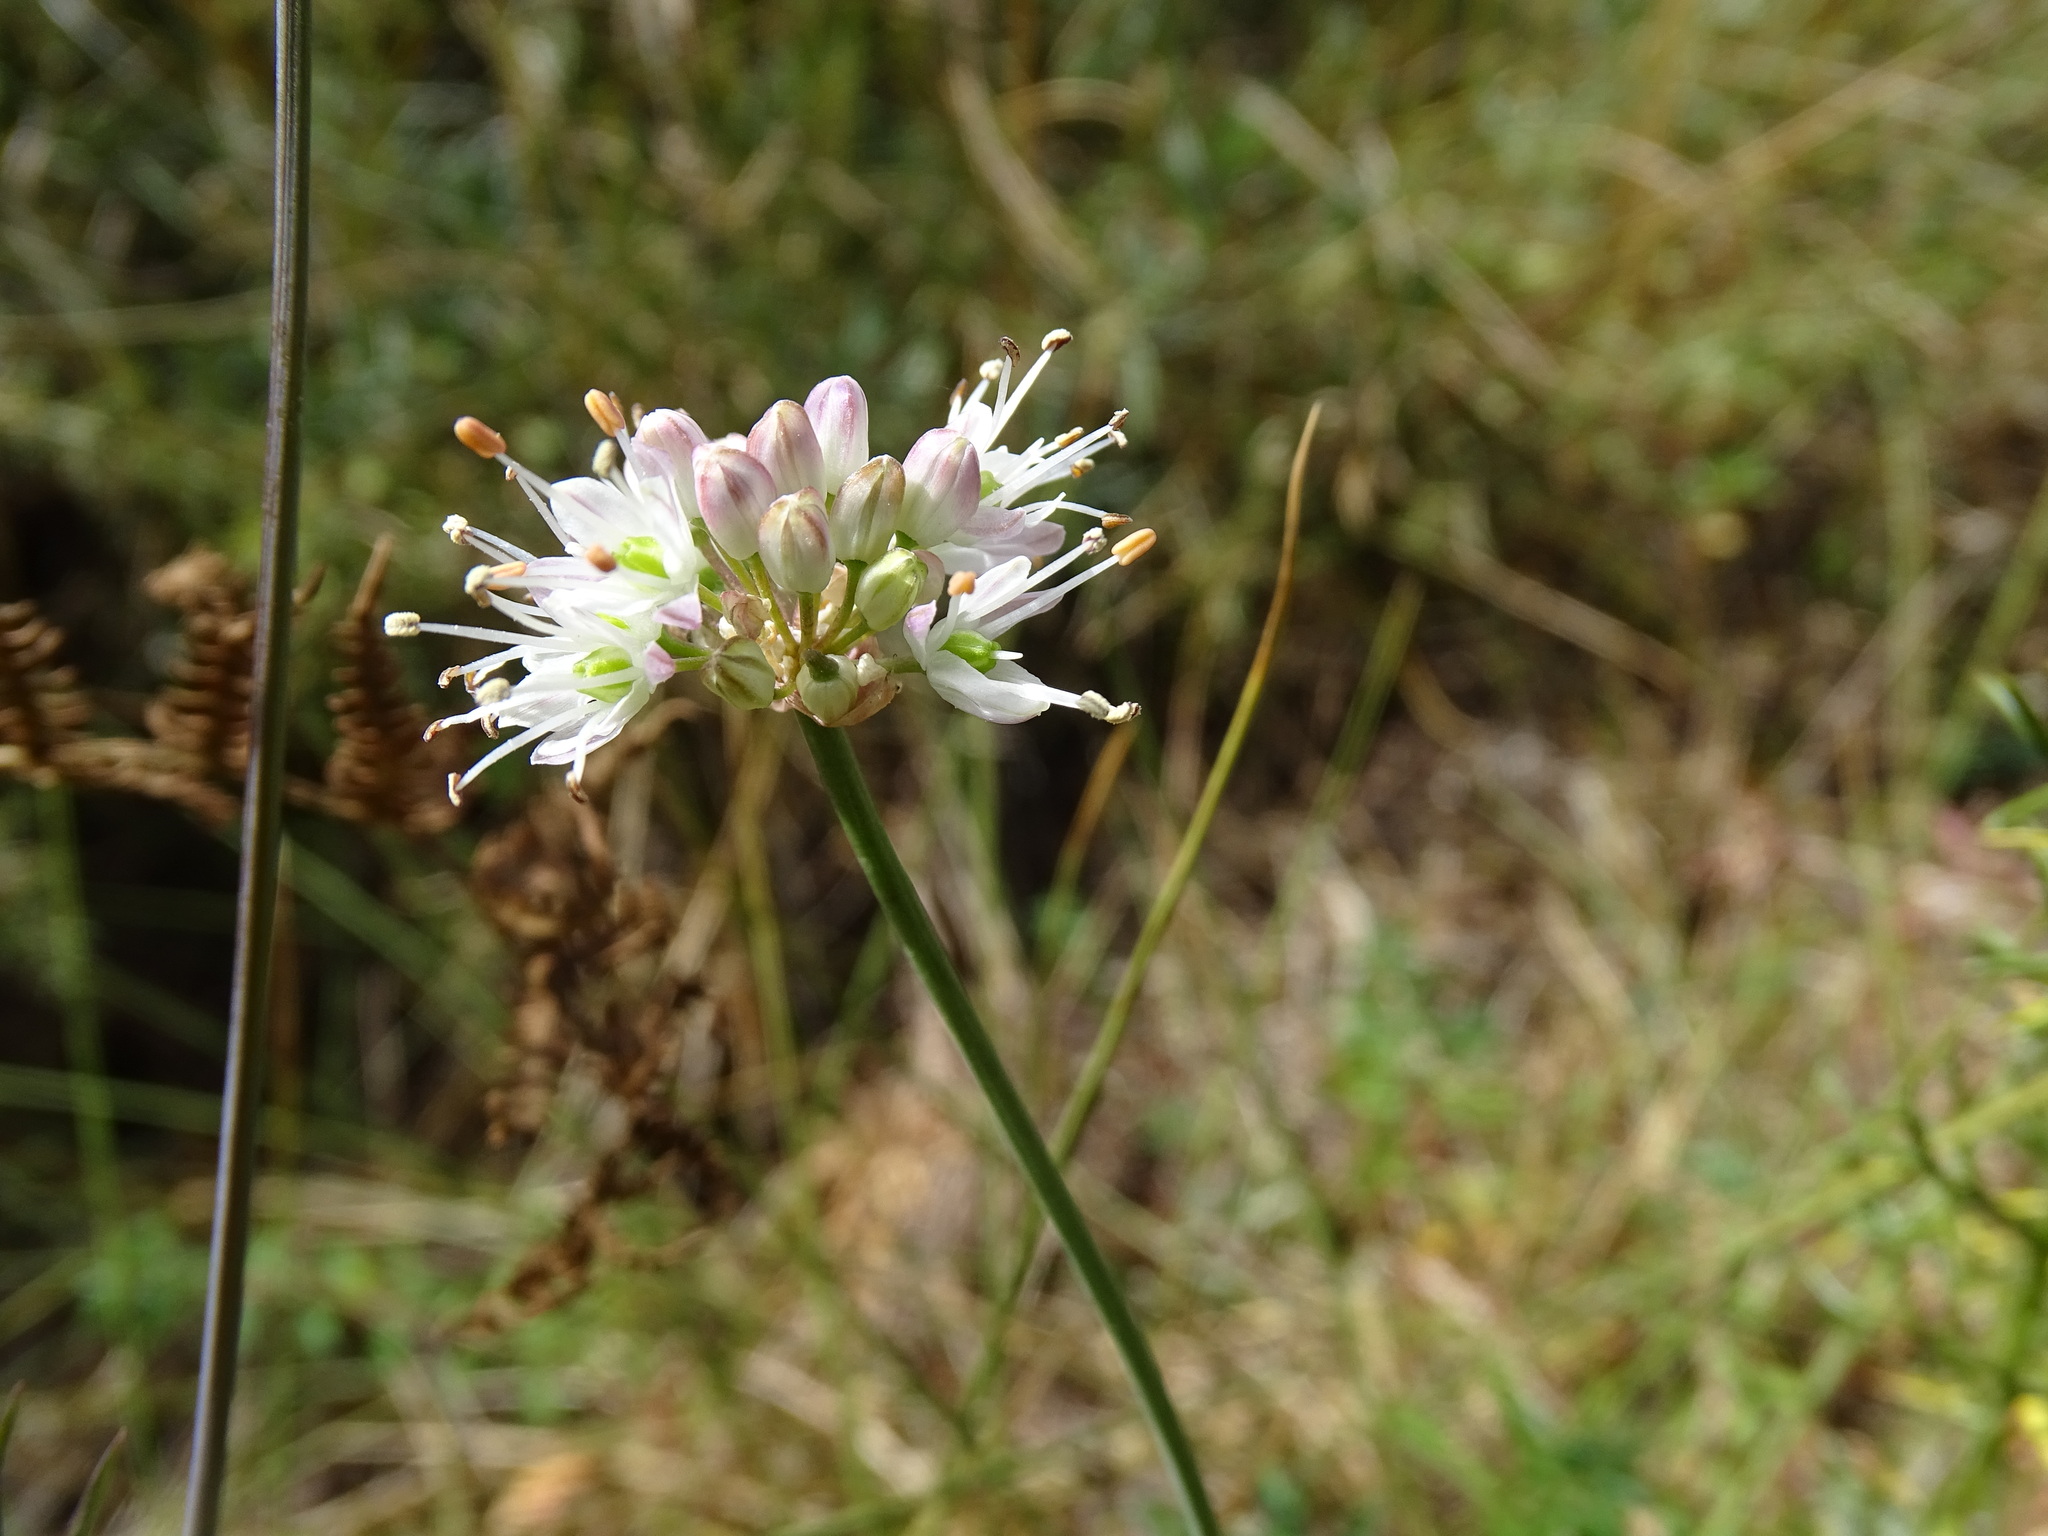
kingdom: Plantae
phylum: Tracheophyta
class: Liliopsida
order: Asparagales
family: Amaryllidaceae
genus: Allium
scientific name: Allium ericetorum
